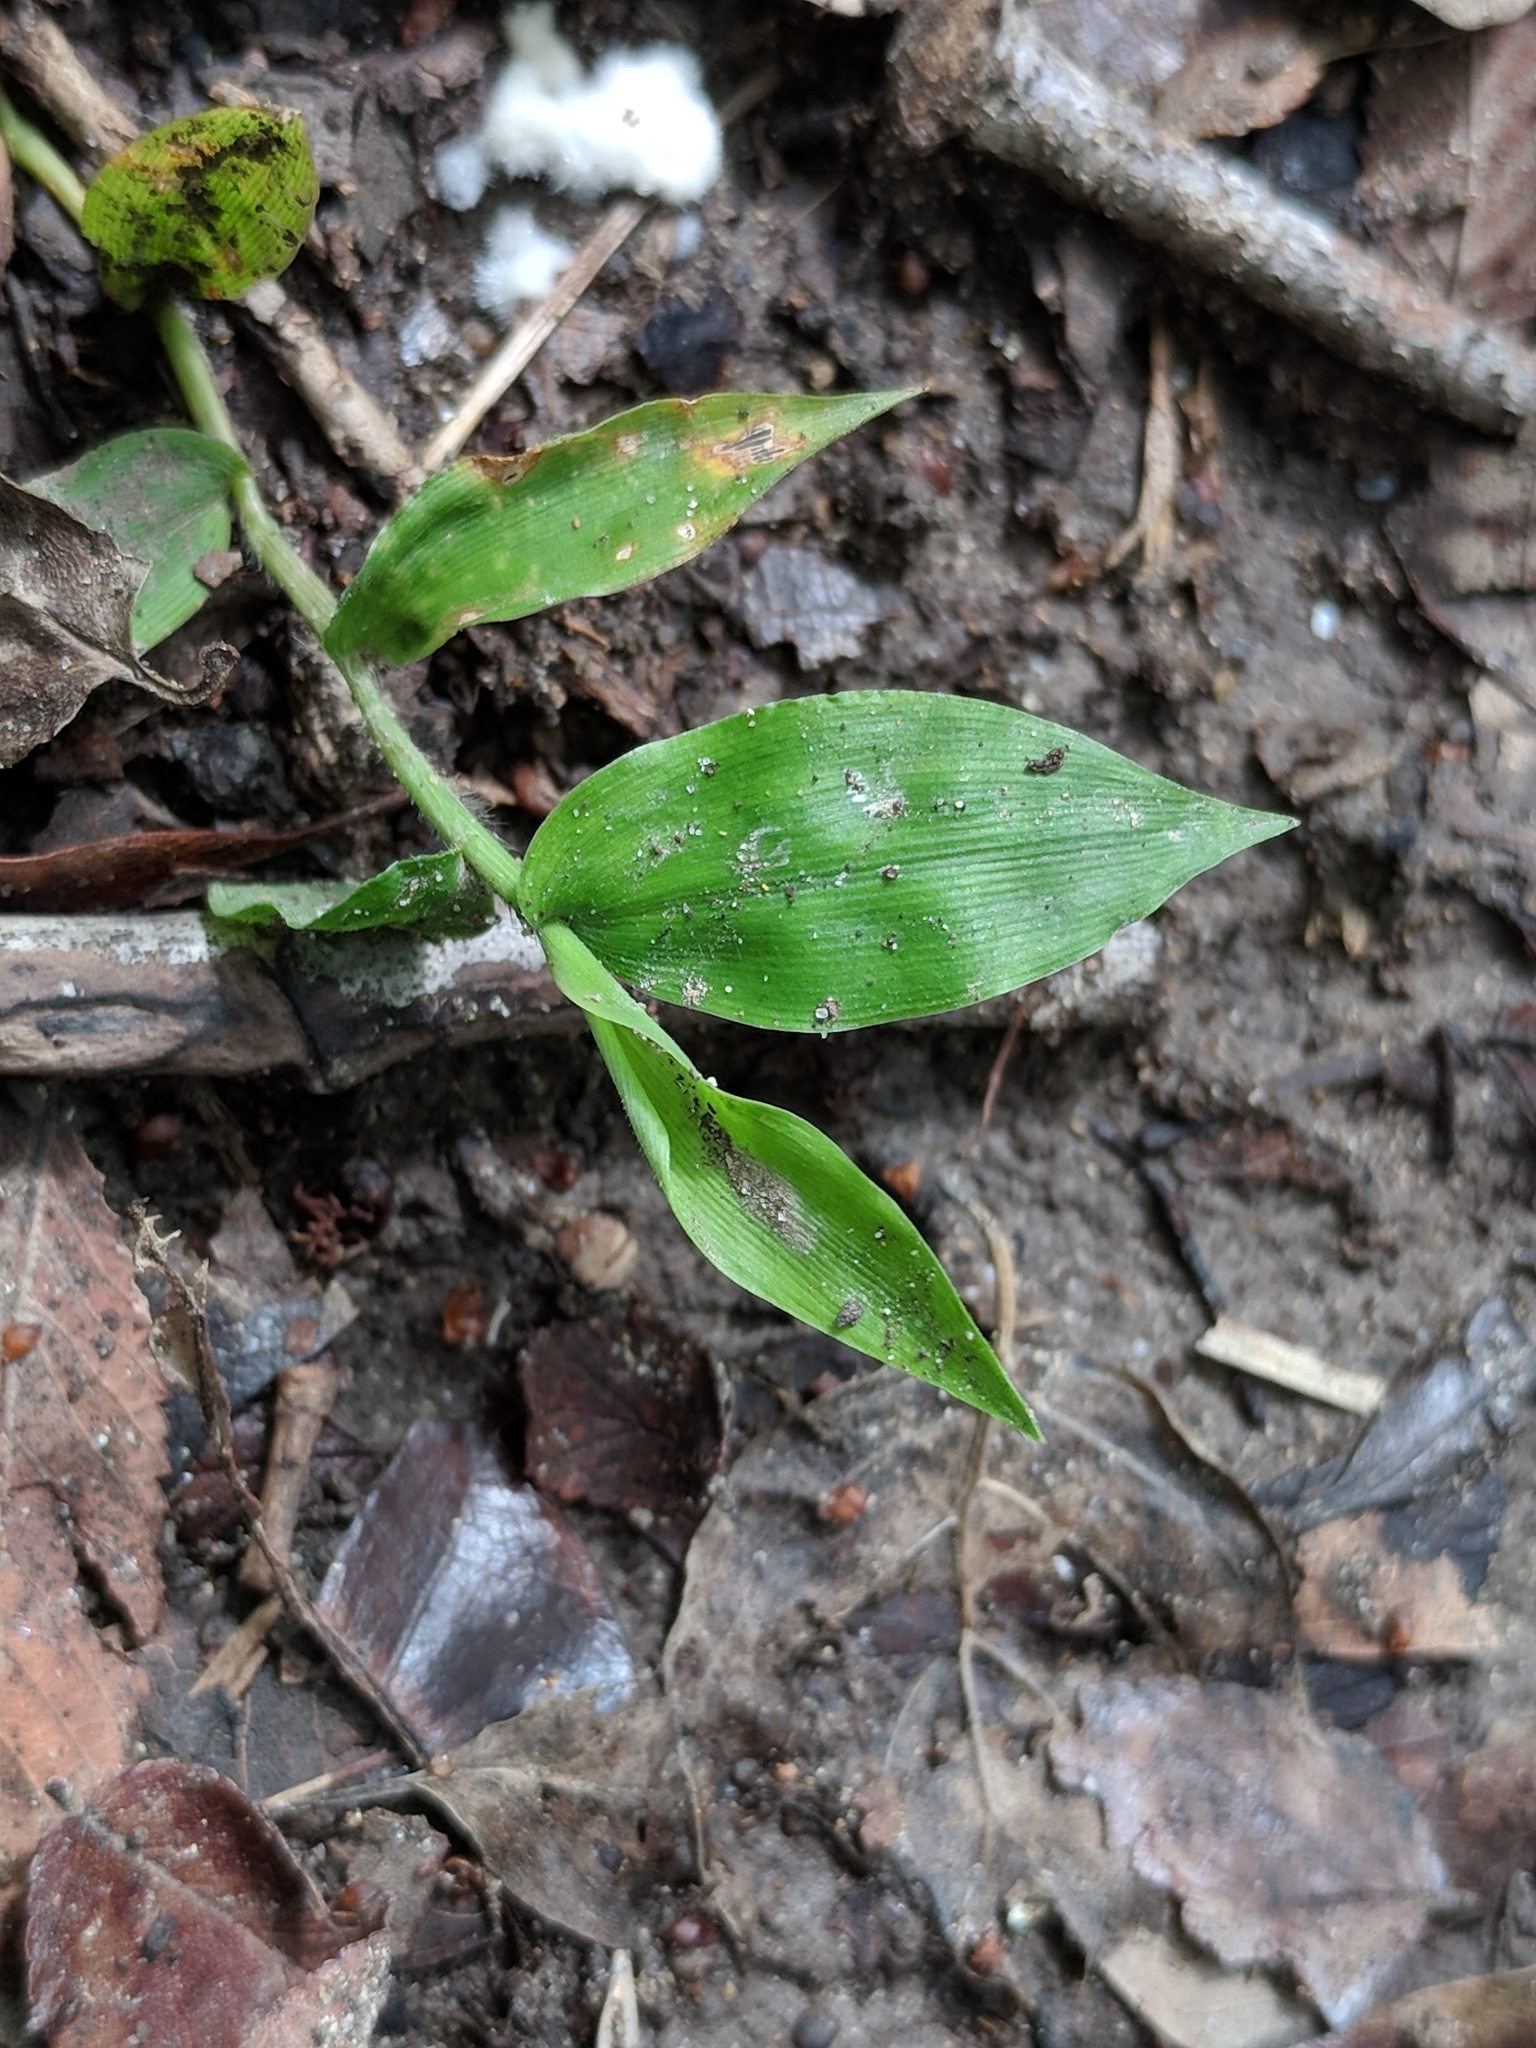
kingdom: Plantae
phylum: Tracheophyta
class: Liliopsida
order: Poales
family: Poaceae
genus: Oplismenus
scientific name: Oplismenus hirtellus
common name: Basketgrass
